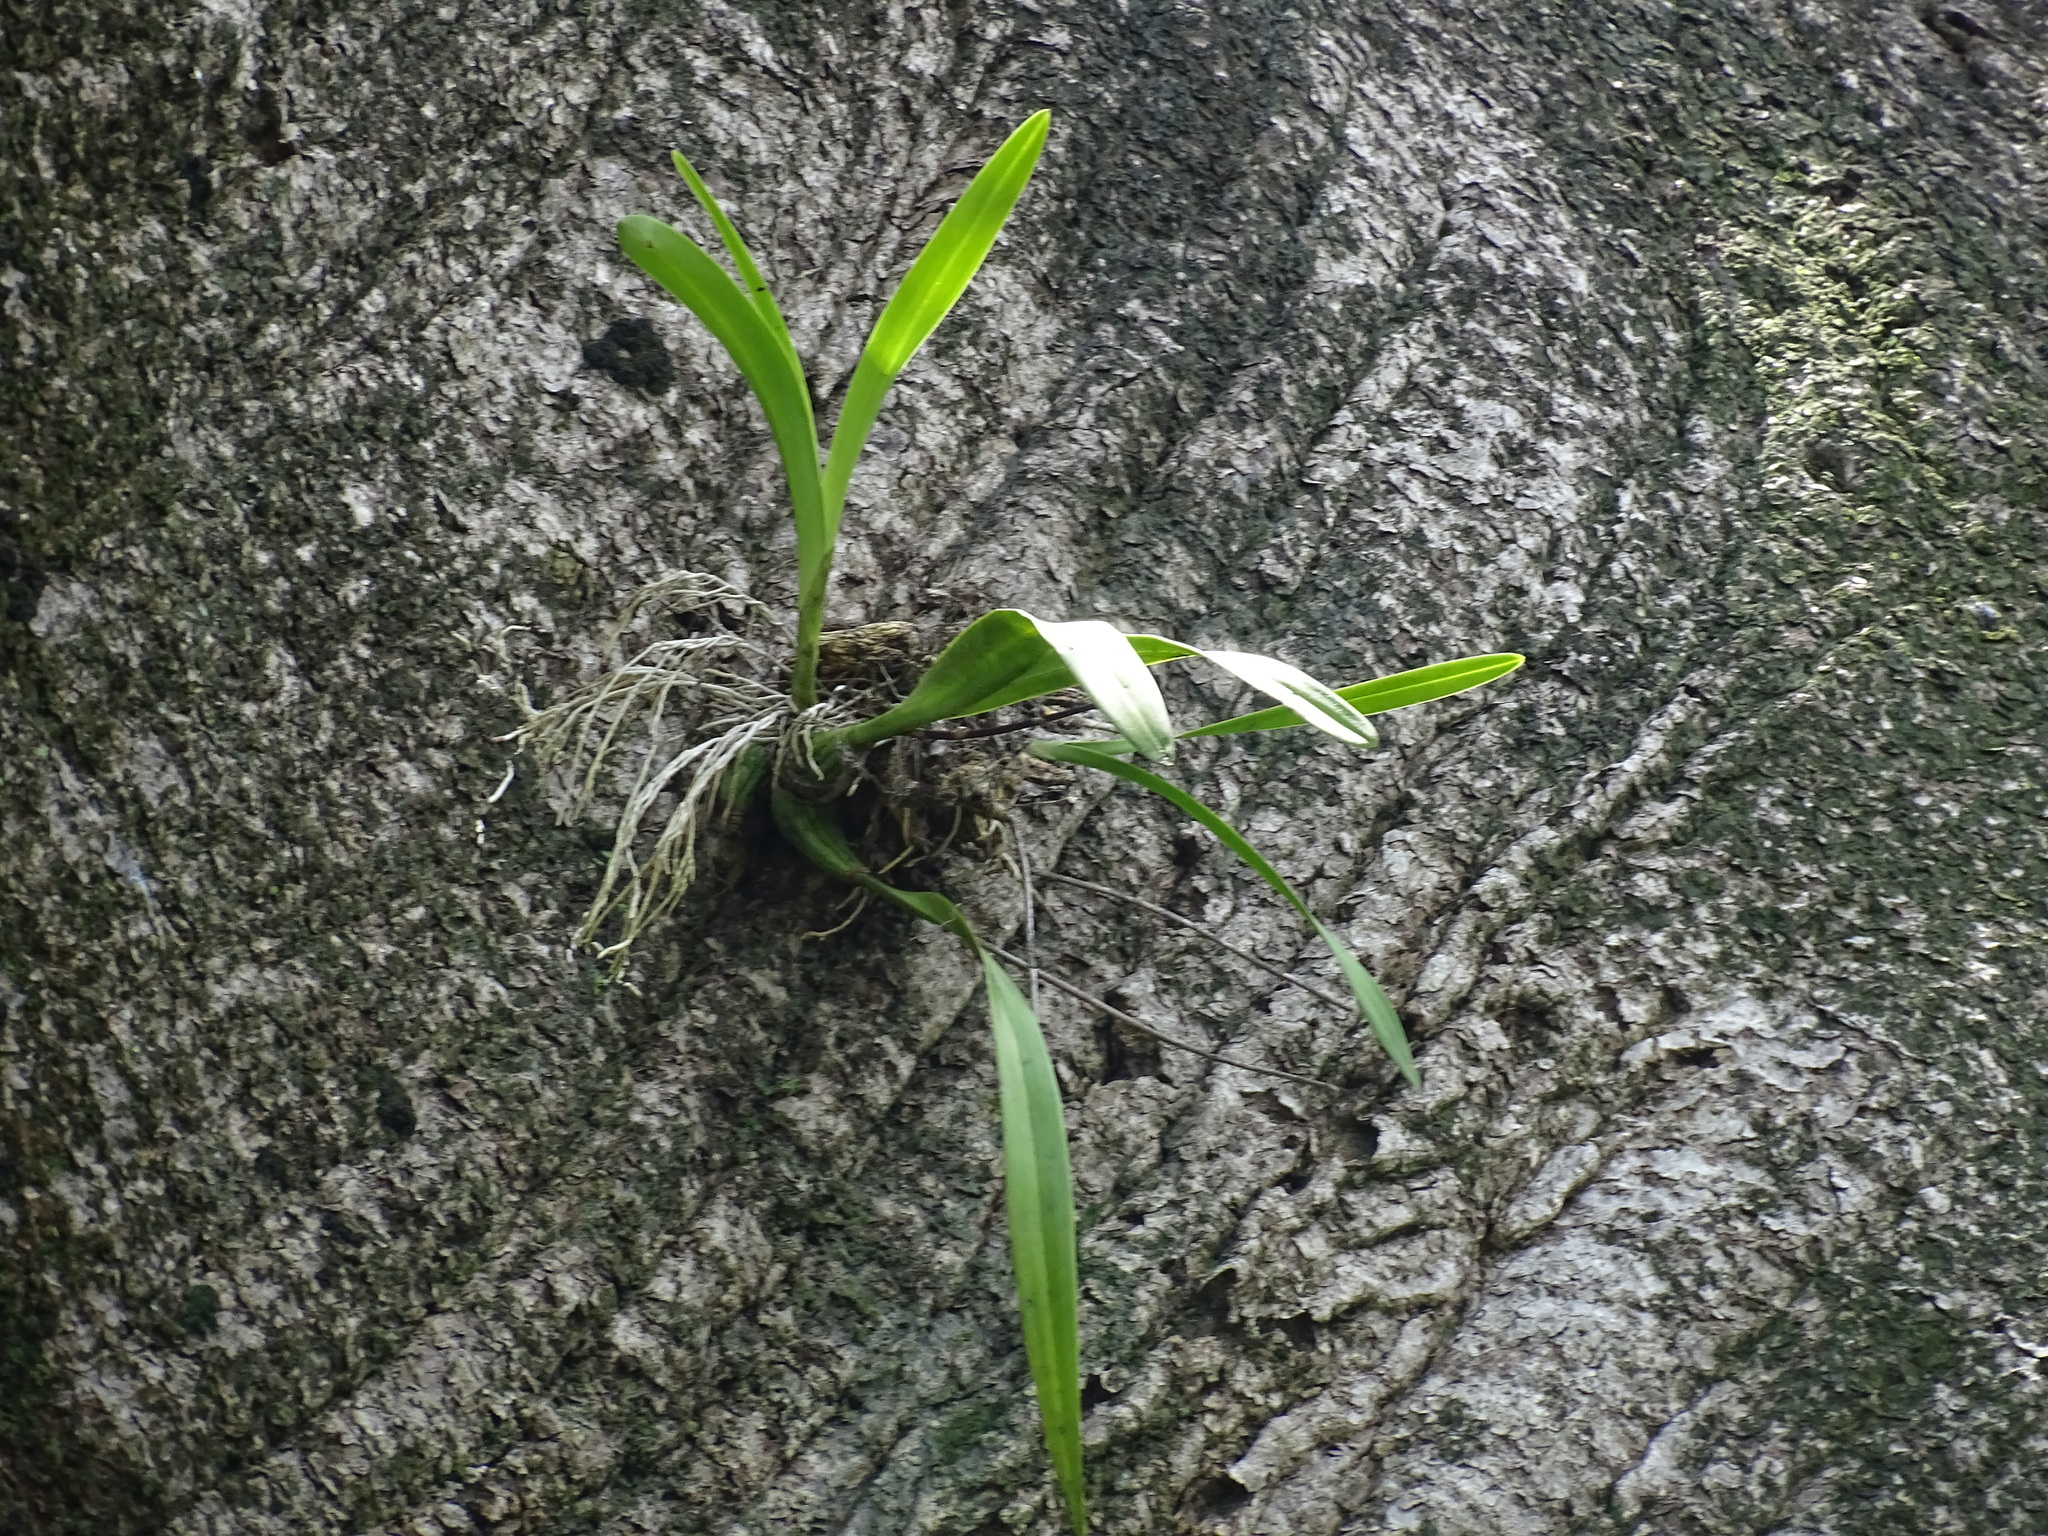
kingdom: Plantae
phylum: Tracheophyta
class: Liliopsida
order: Asparagales
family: Orchidaceae
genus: Prosthechea
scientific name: Prosthechea radiata
